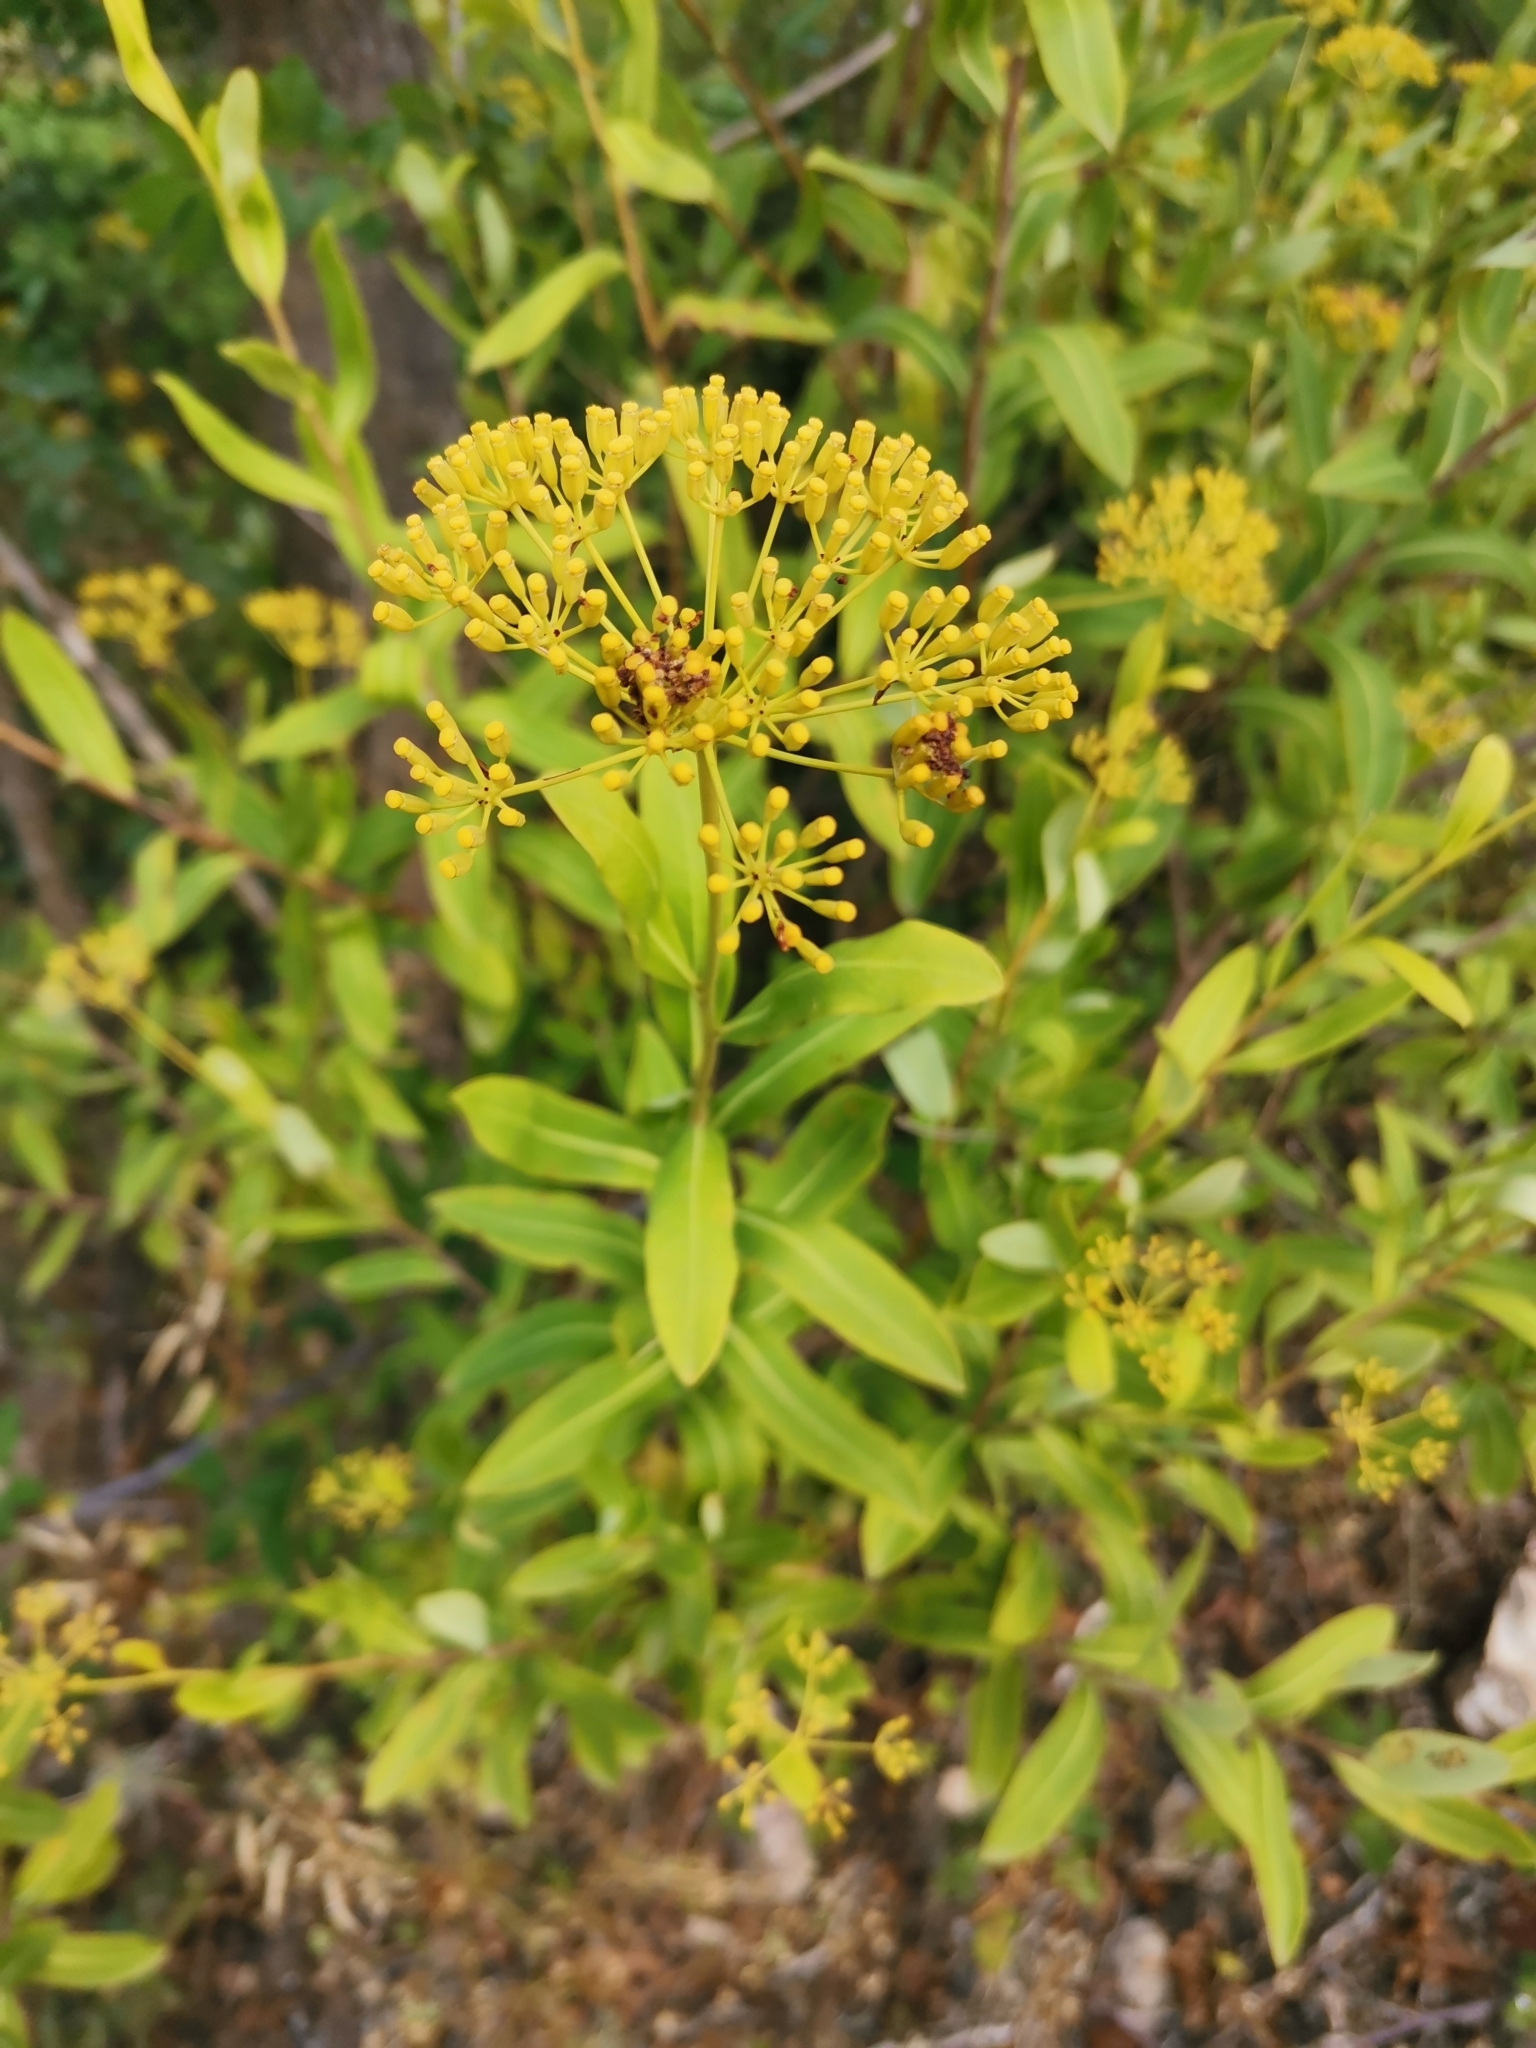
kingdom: Plantae
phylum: Tracheophyta
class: Magnoliopsida
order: Apiales
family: Apiaceae
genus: Bupleurum
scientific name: Bupleurum fruticosum
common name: Shrubby hare's-ear
